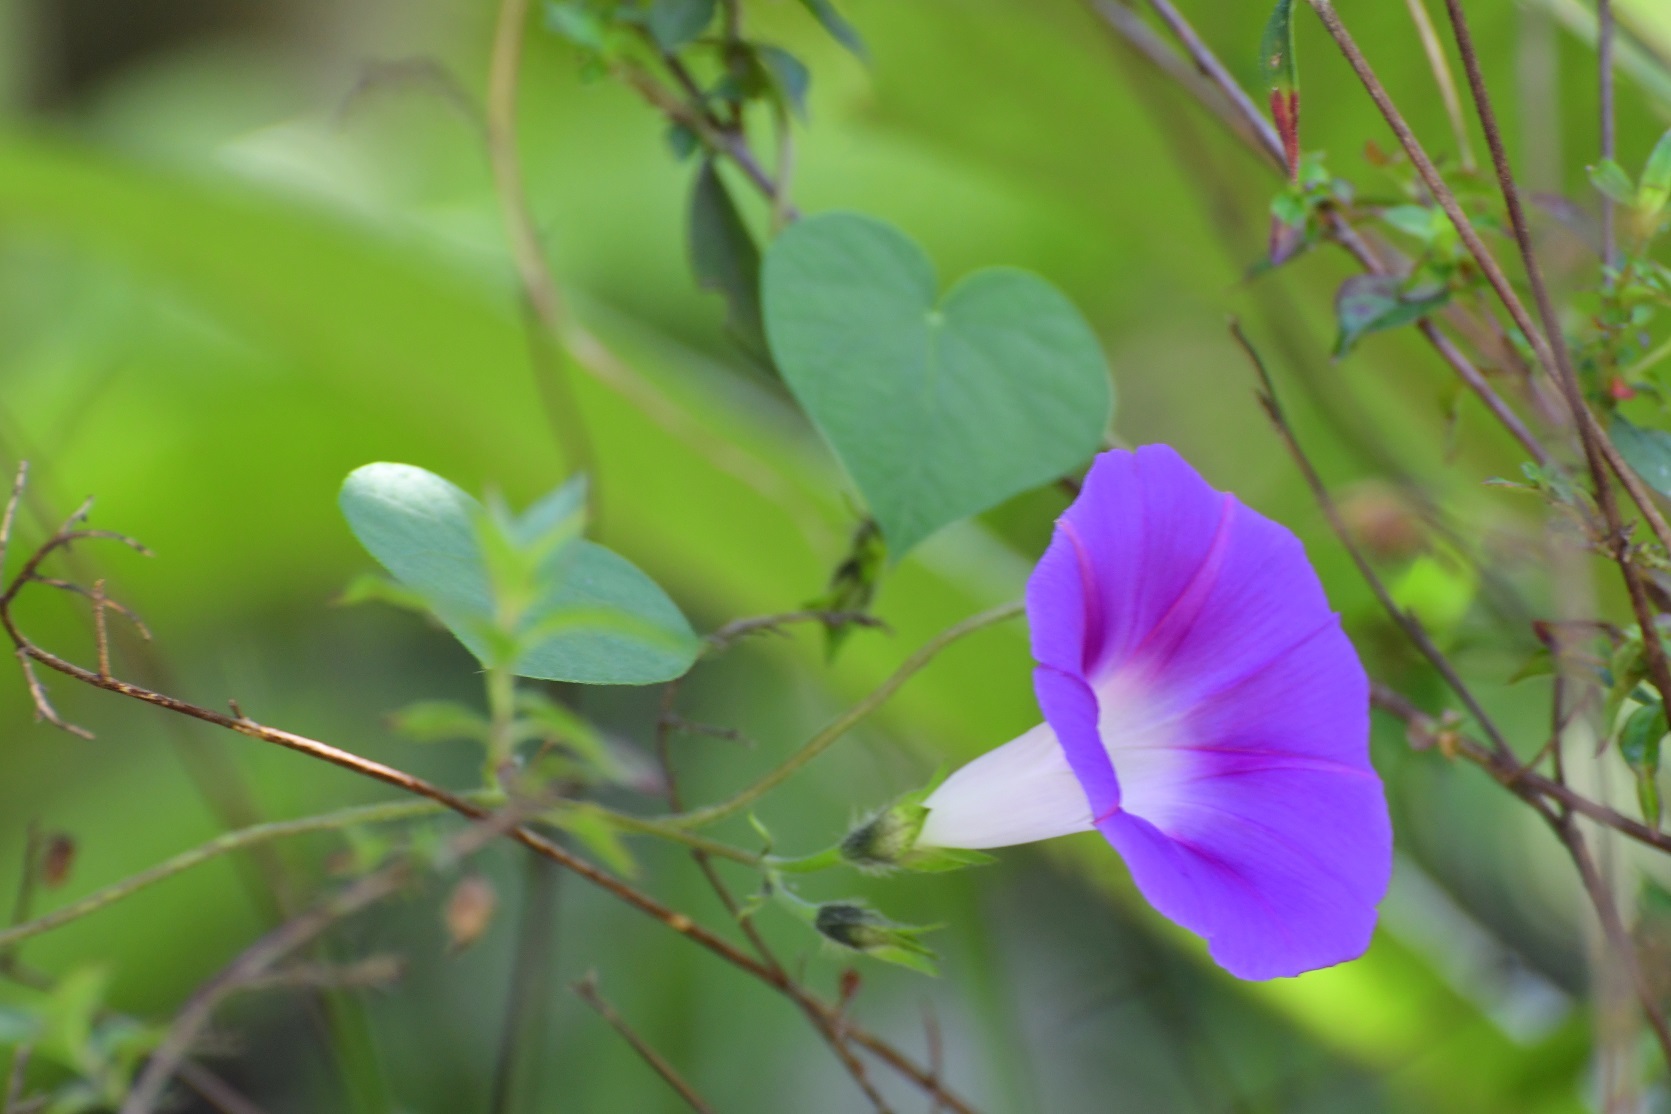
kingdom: Plantae
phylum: Tracheophyta
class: Magnoliopsida
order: Solanales
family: Convolvulaceae
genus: Ipomoea
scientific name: Ipomoea purpurea
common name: Common morning-glory
